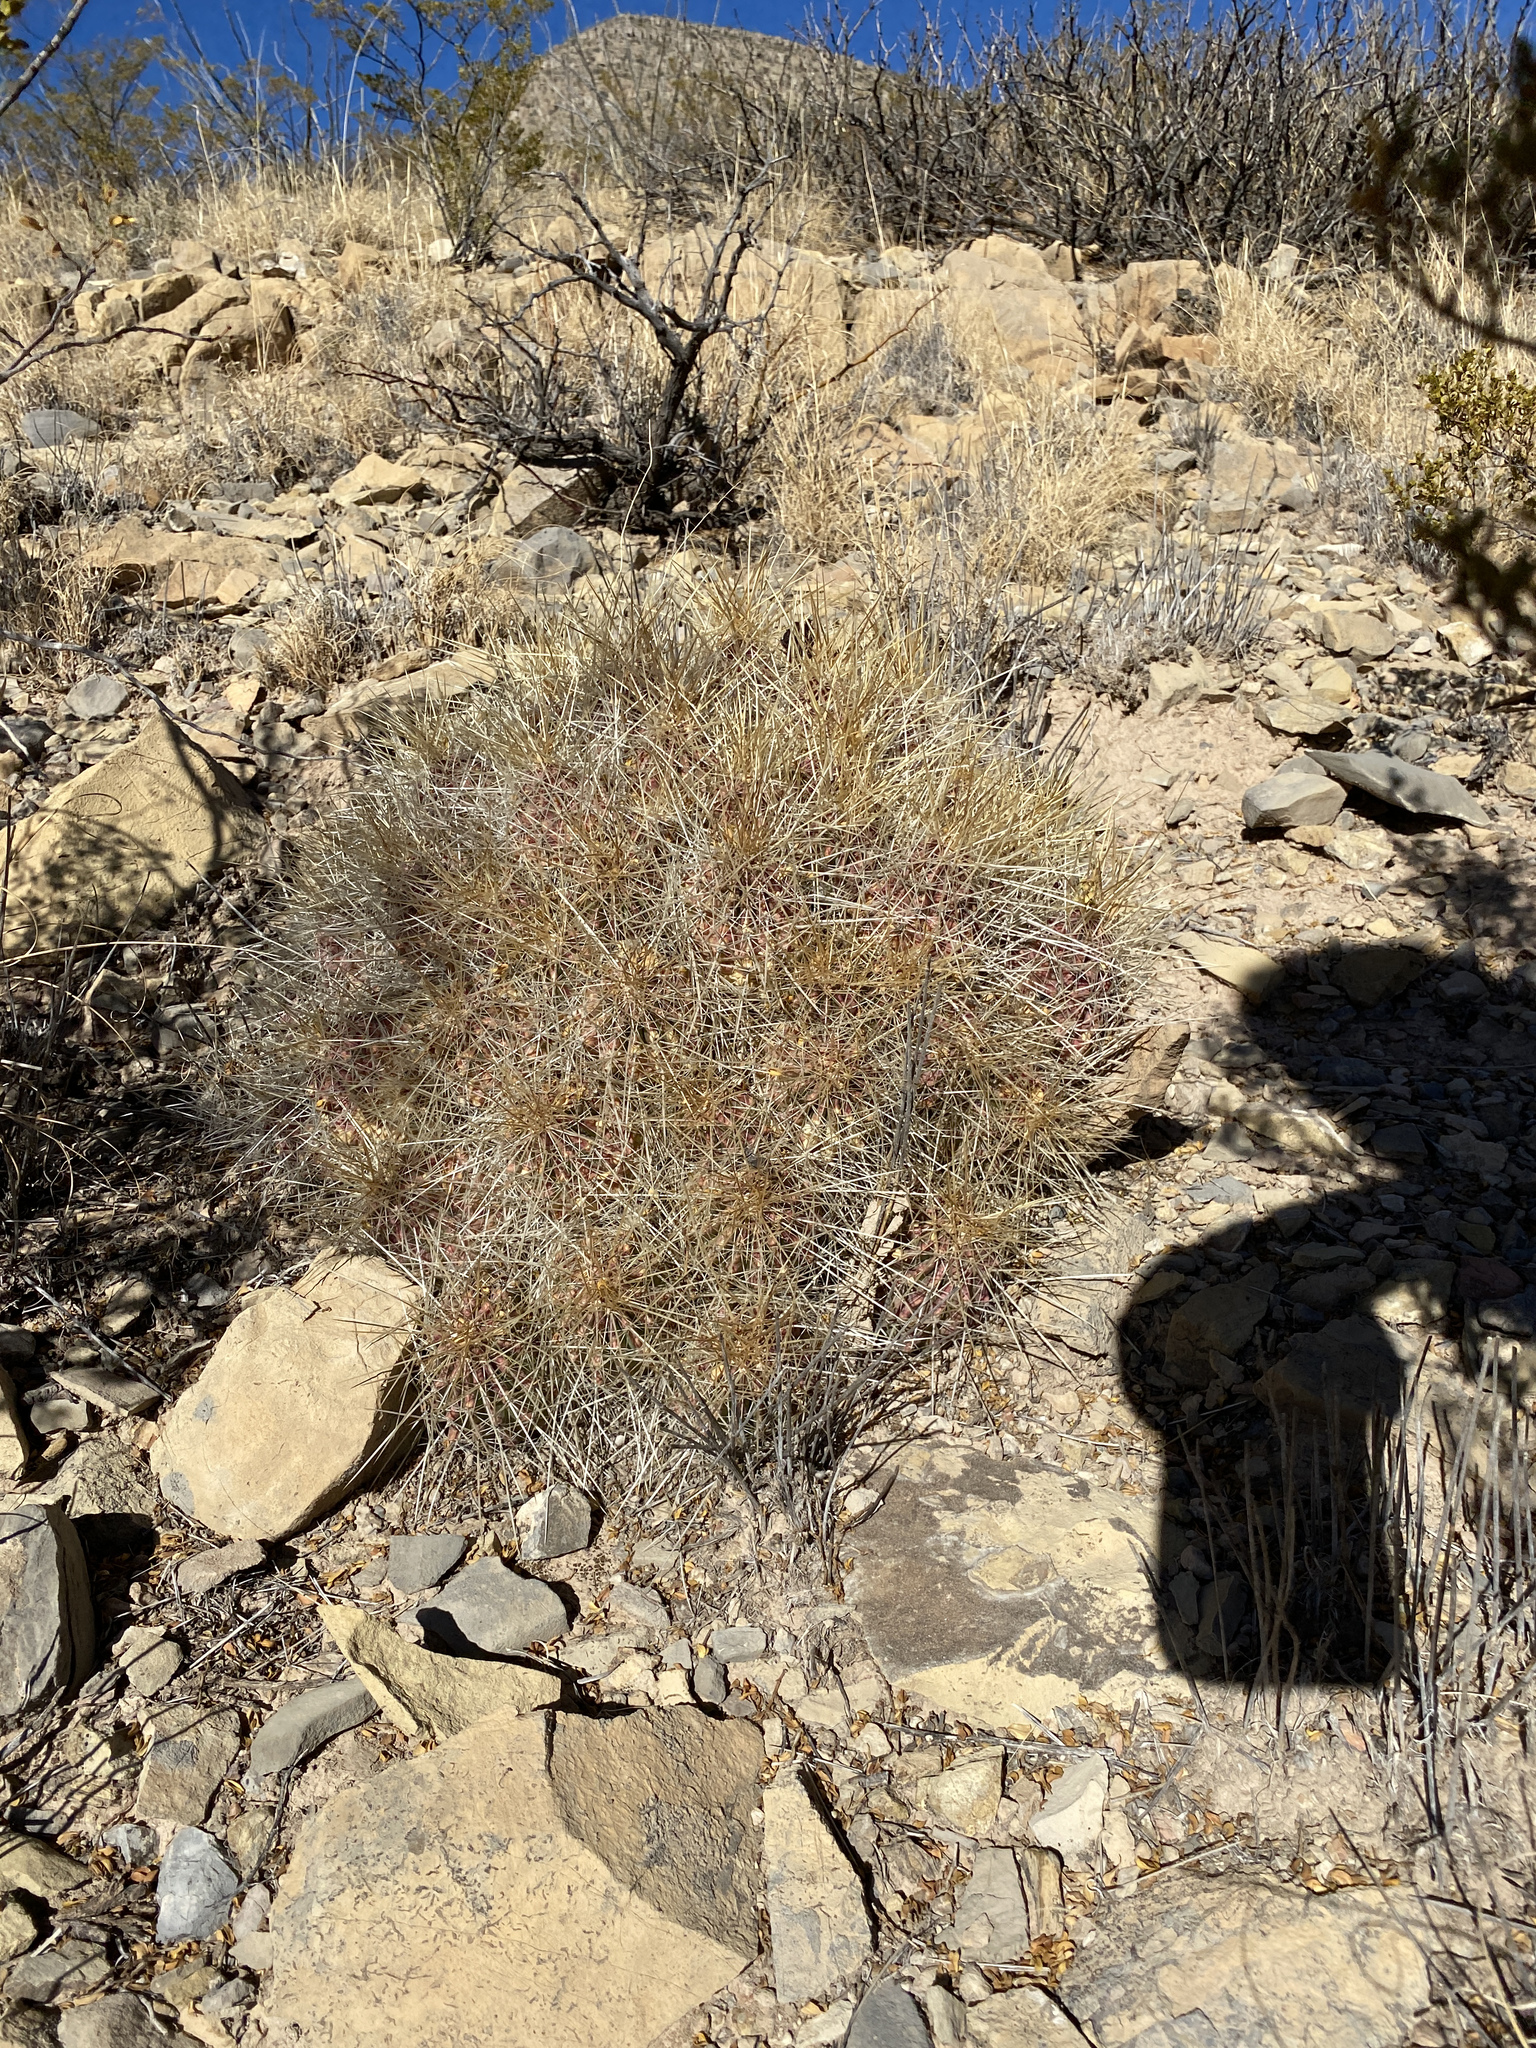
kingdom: Plantae
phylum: Tracheophyta
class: Magnoliopsida
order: Caryophyllales
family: Cactaceae
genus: Echinocereus
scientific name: Echinocereus stramineus
